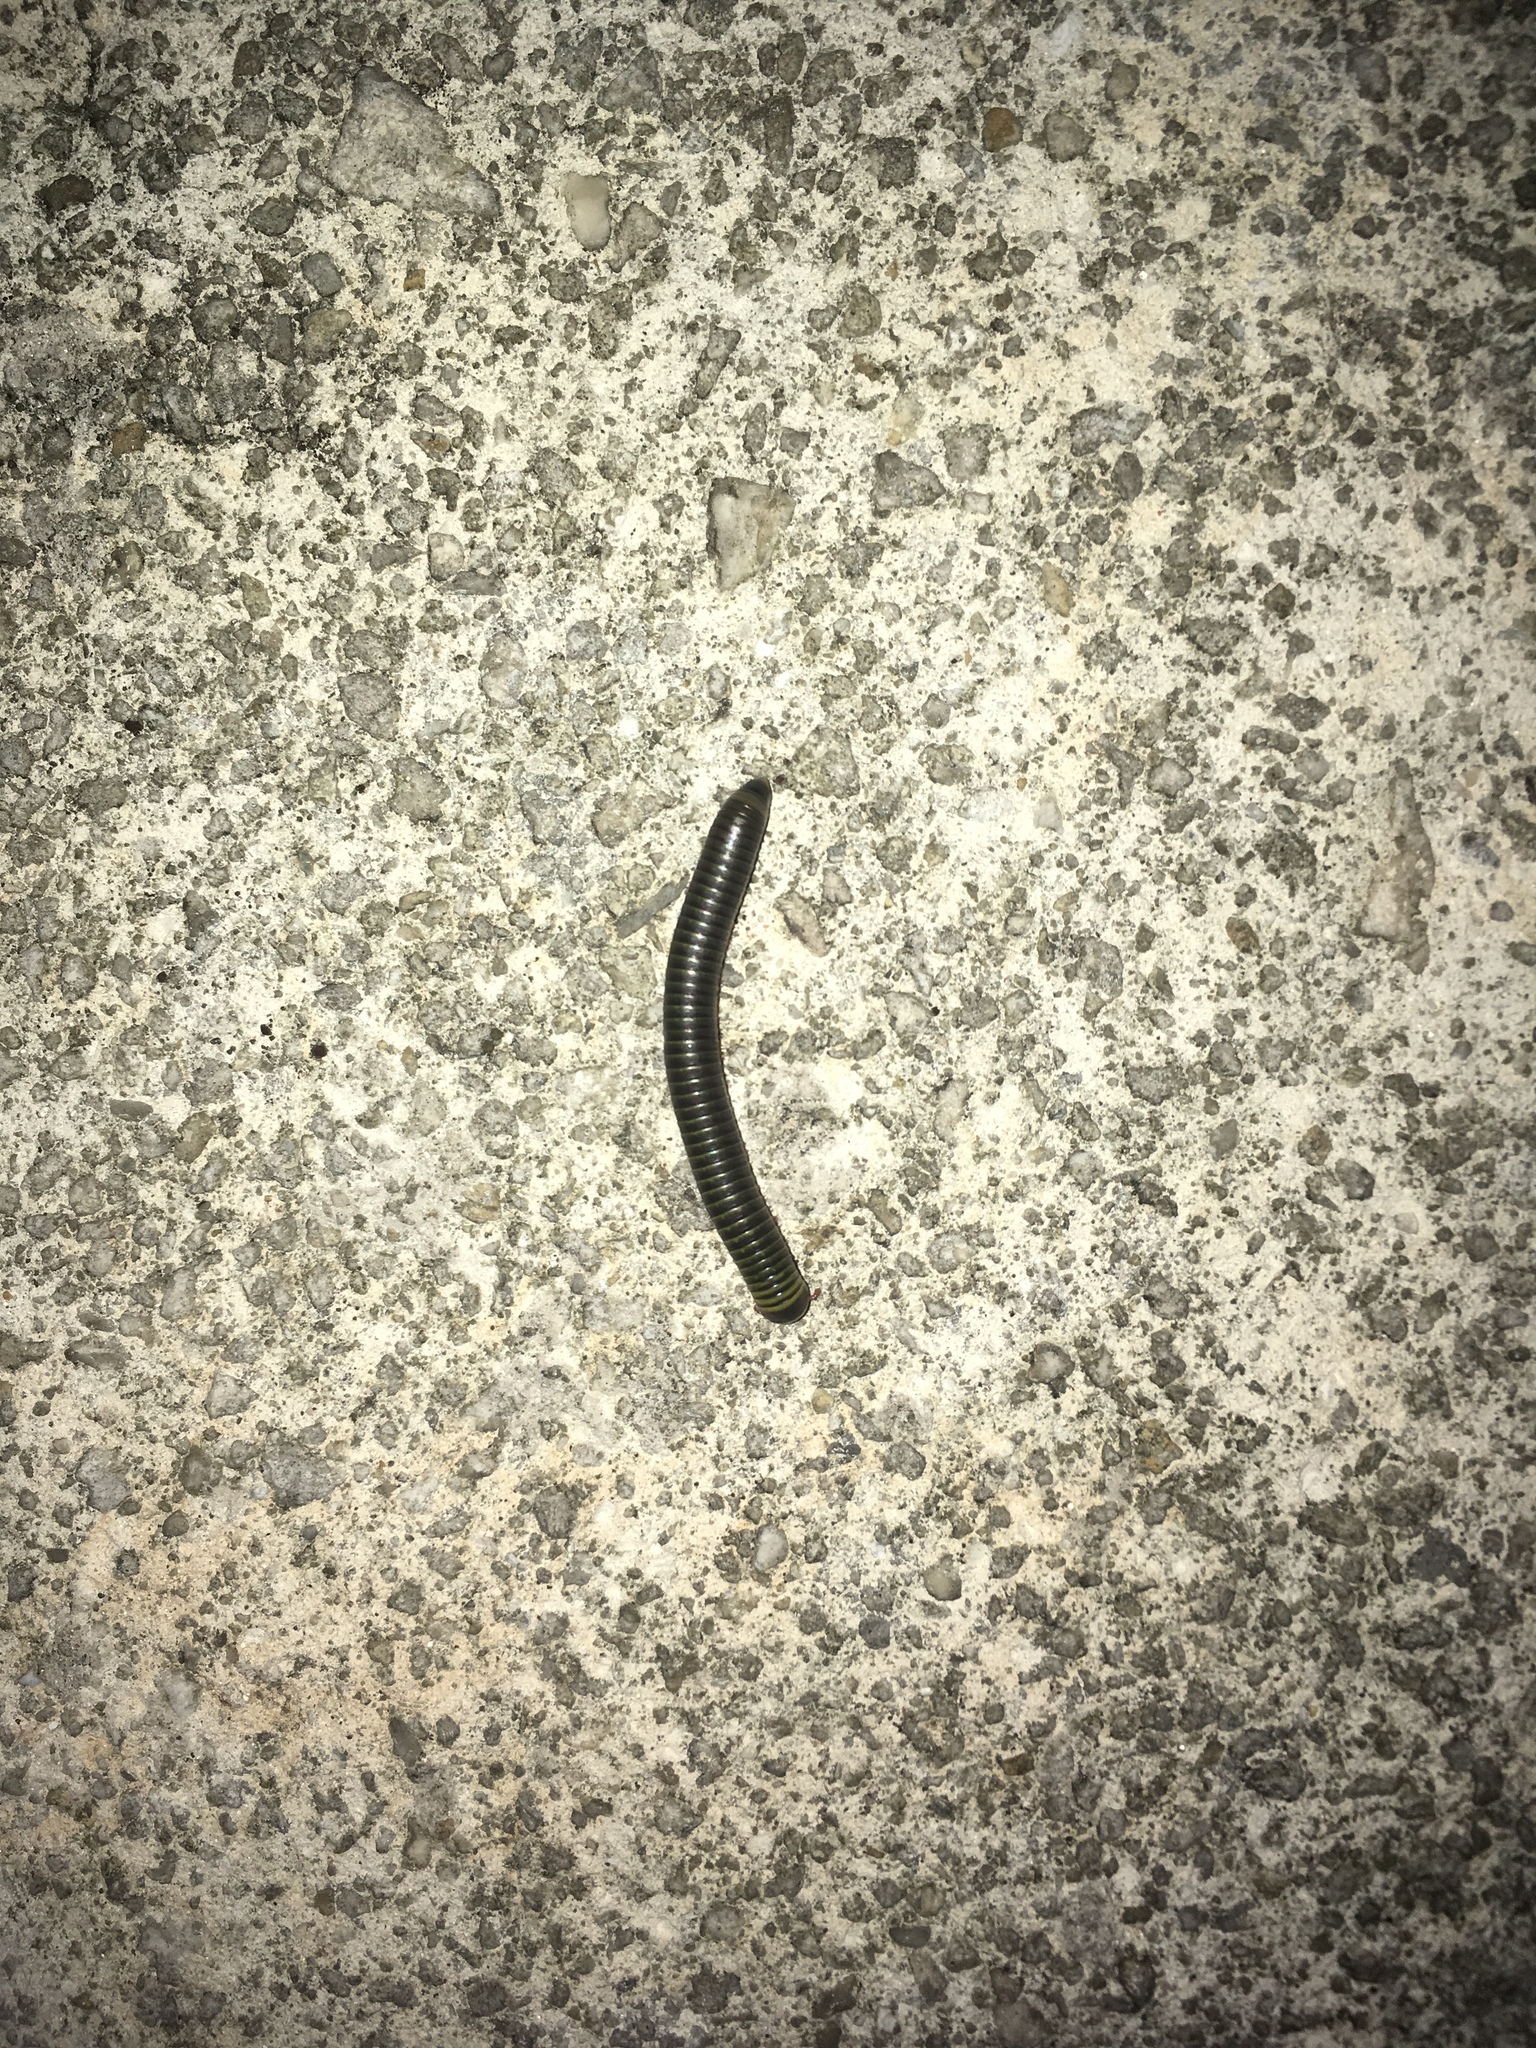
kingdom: Animalia
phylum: Arthropoda
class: Diplopoda
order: Spirobolida
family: Rhinocricidae
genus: Anadenobolus
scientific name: Anadenobolus monilicornis
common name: Caribbean millipede
